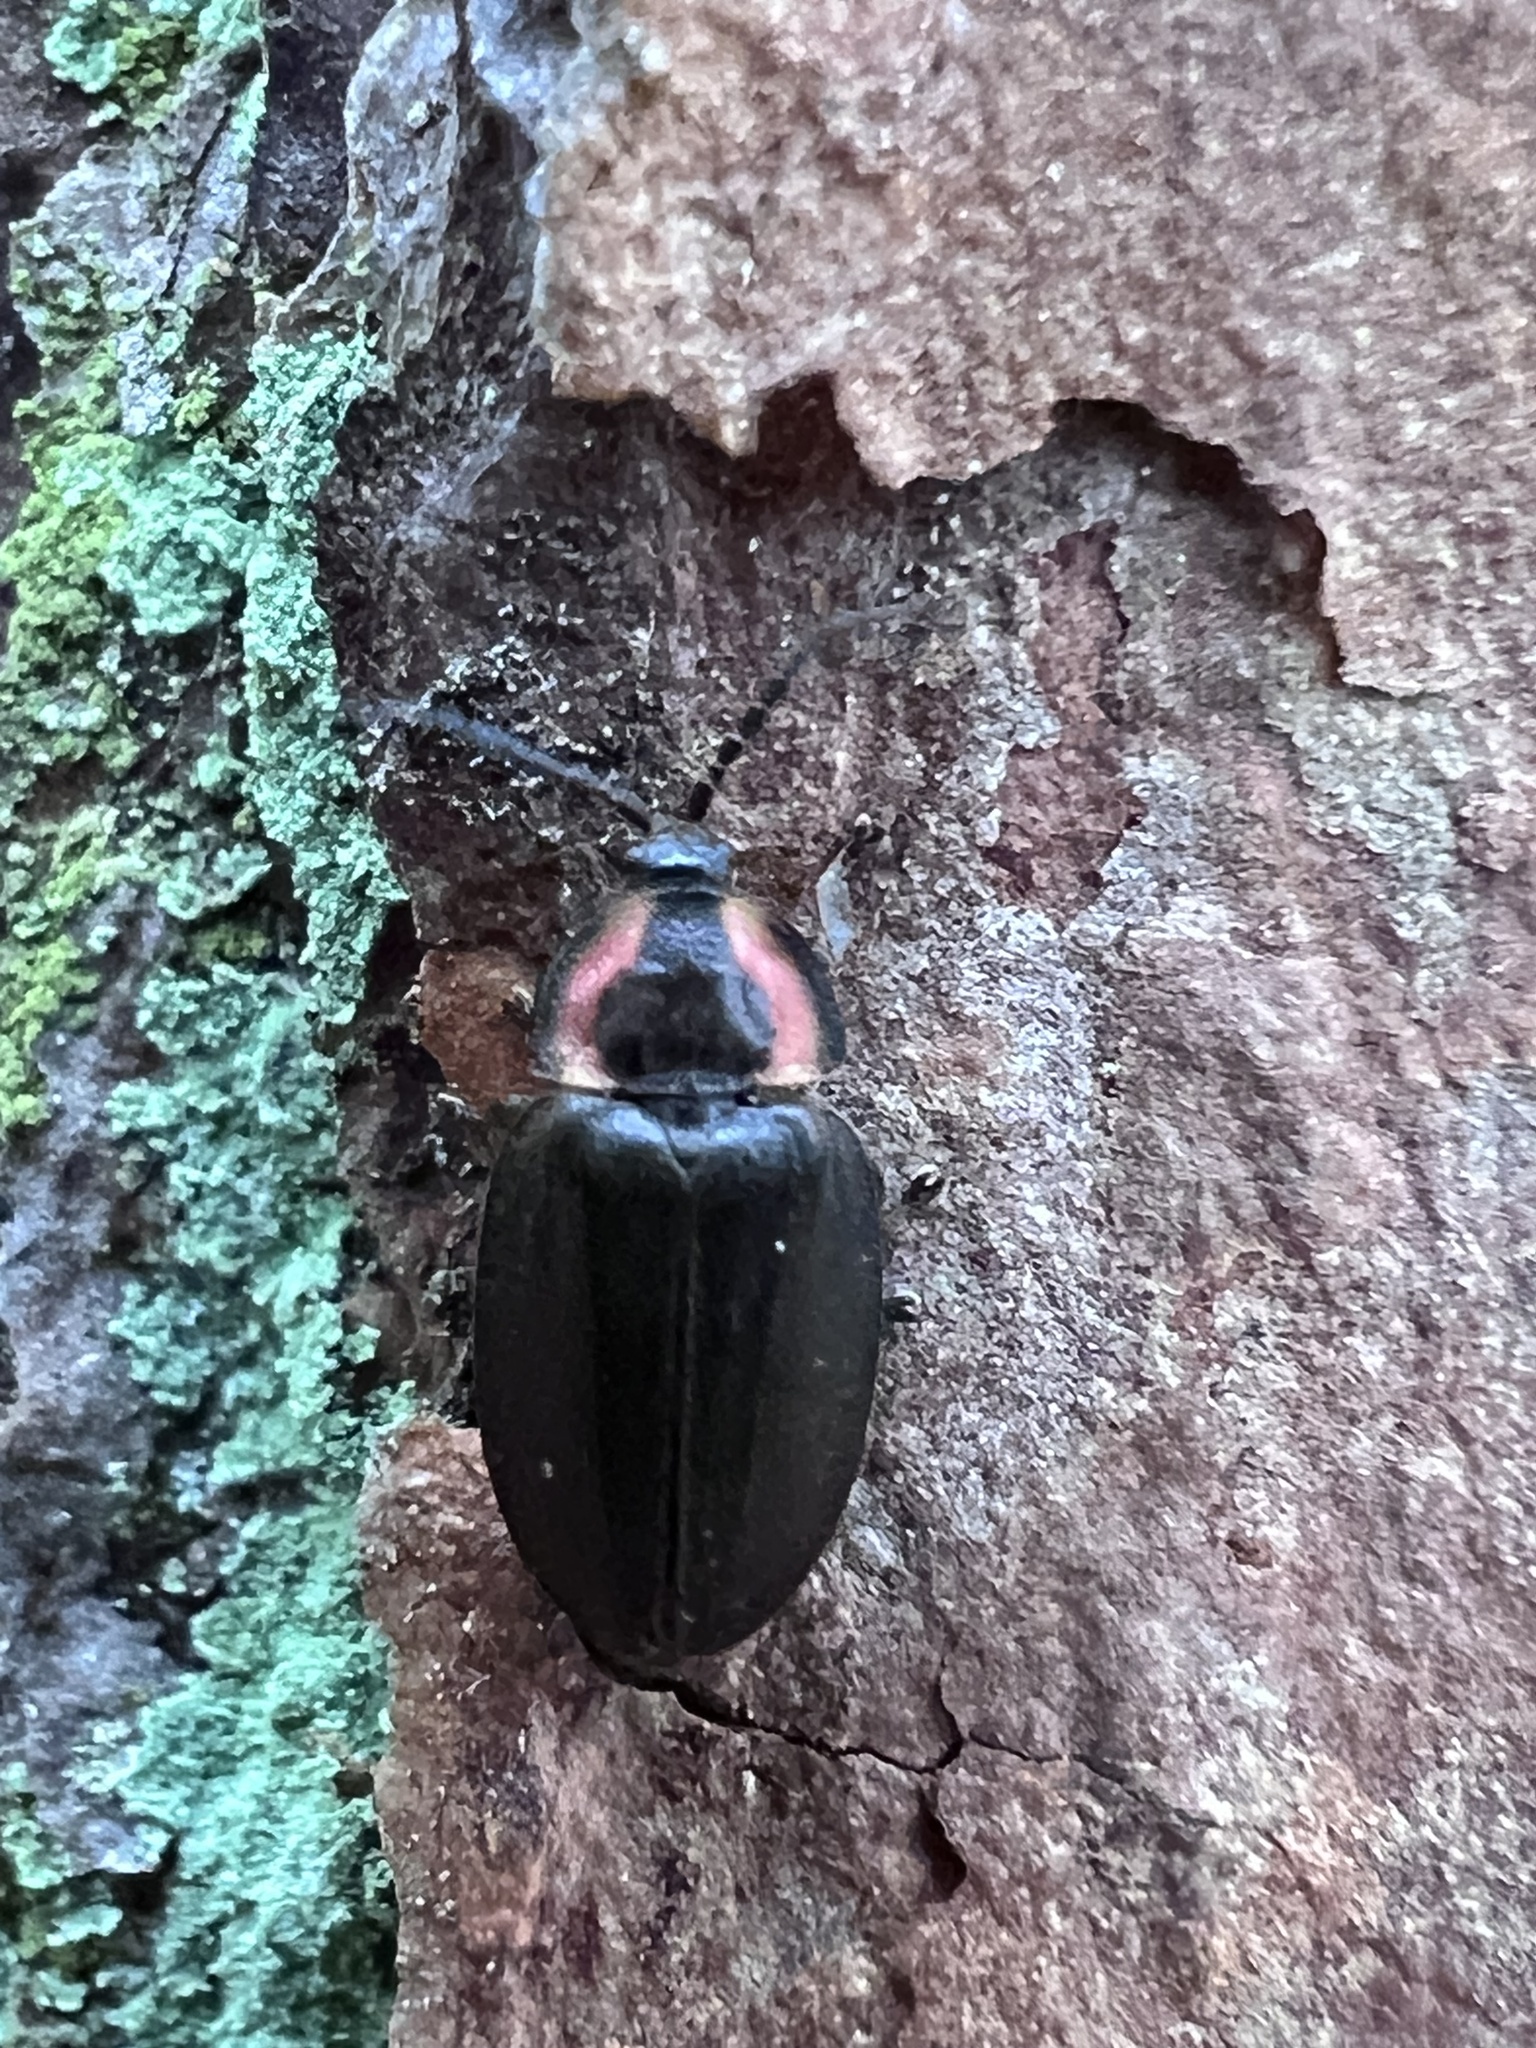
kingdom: Animalia
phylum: Arthropoda
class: Insecta
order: Coleoptera
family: Lampyridae
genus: Photinus
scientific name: Photinus corrusca
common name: Winter firefly
